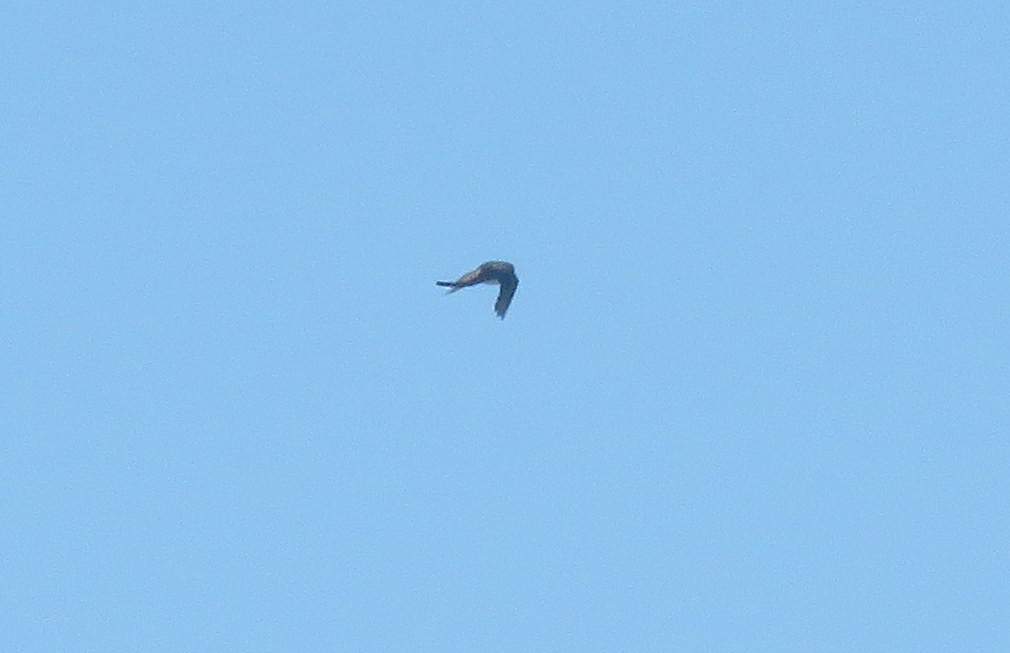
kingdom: Animalia
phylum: Chordata
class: Aves
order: Passeriformes
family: Tyrannidae
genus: Tyrannus
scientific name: Tyrannus savana
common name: Fork-tailed flycatcher
